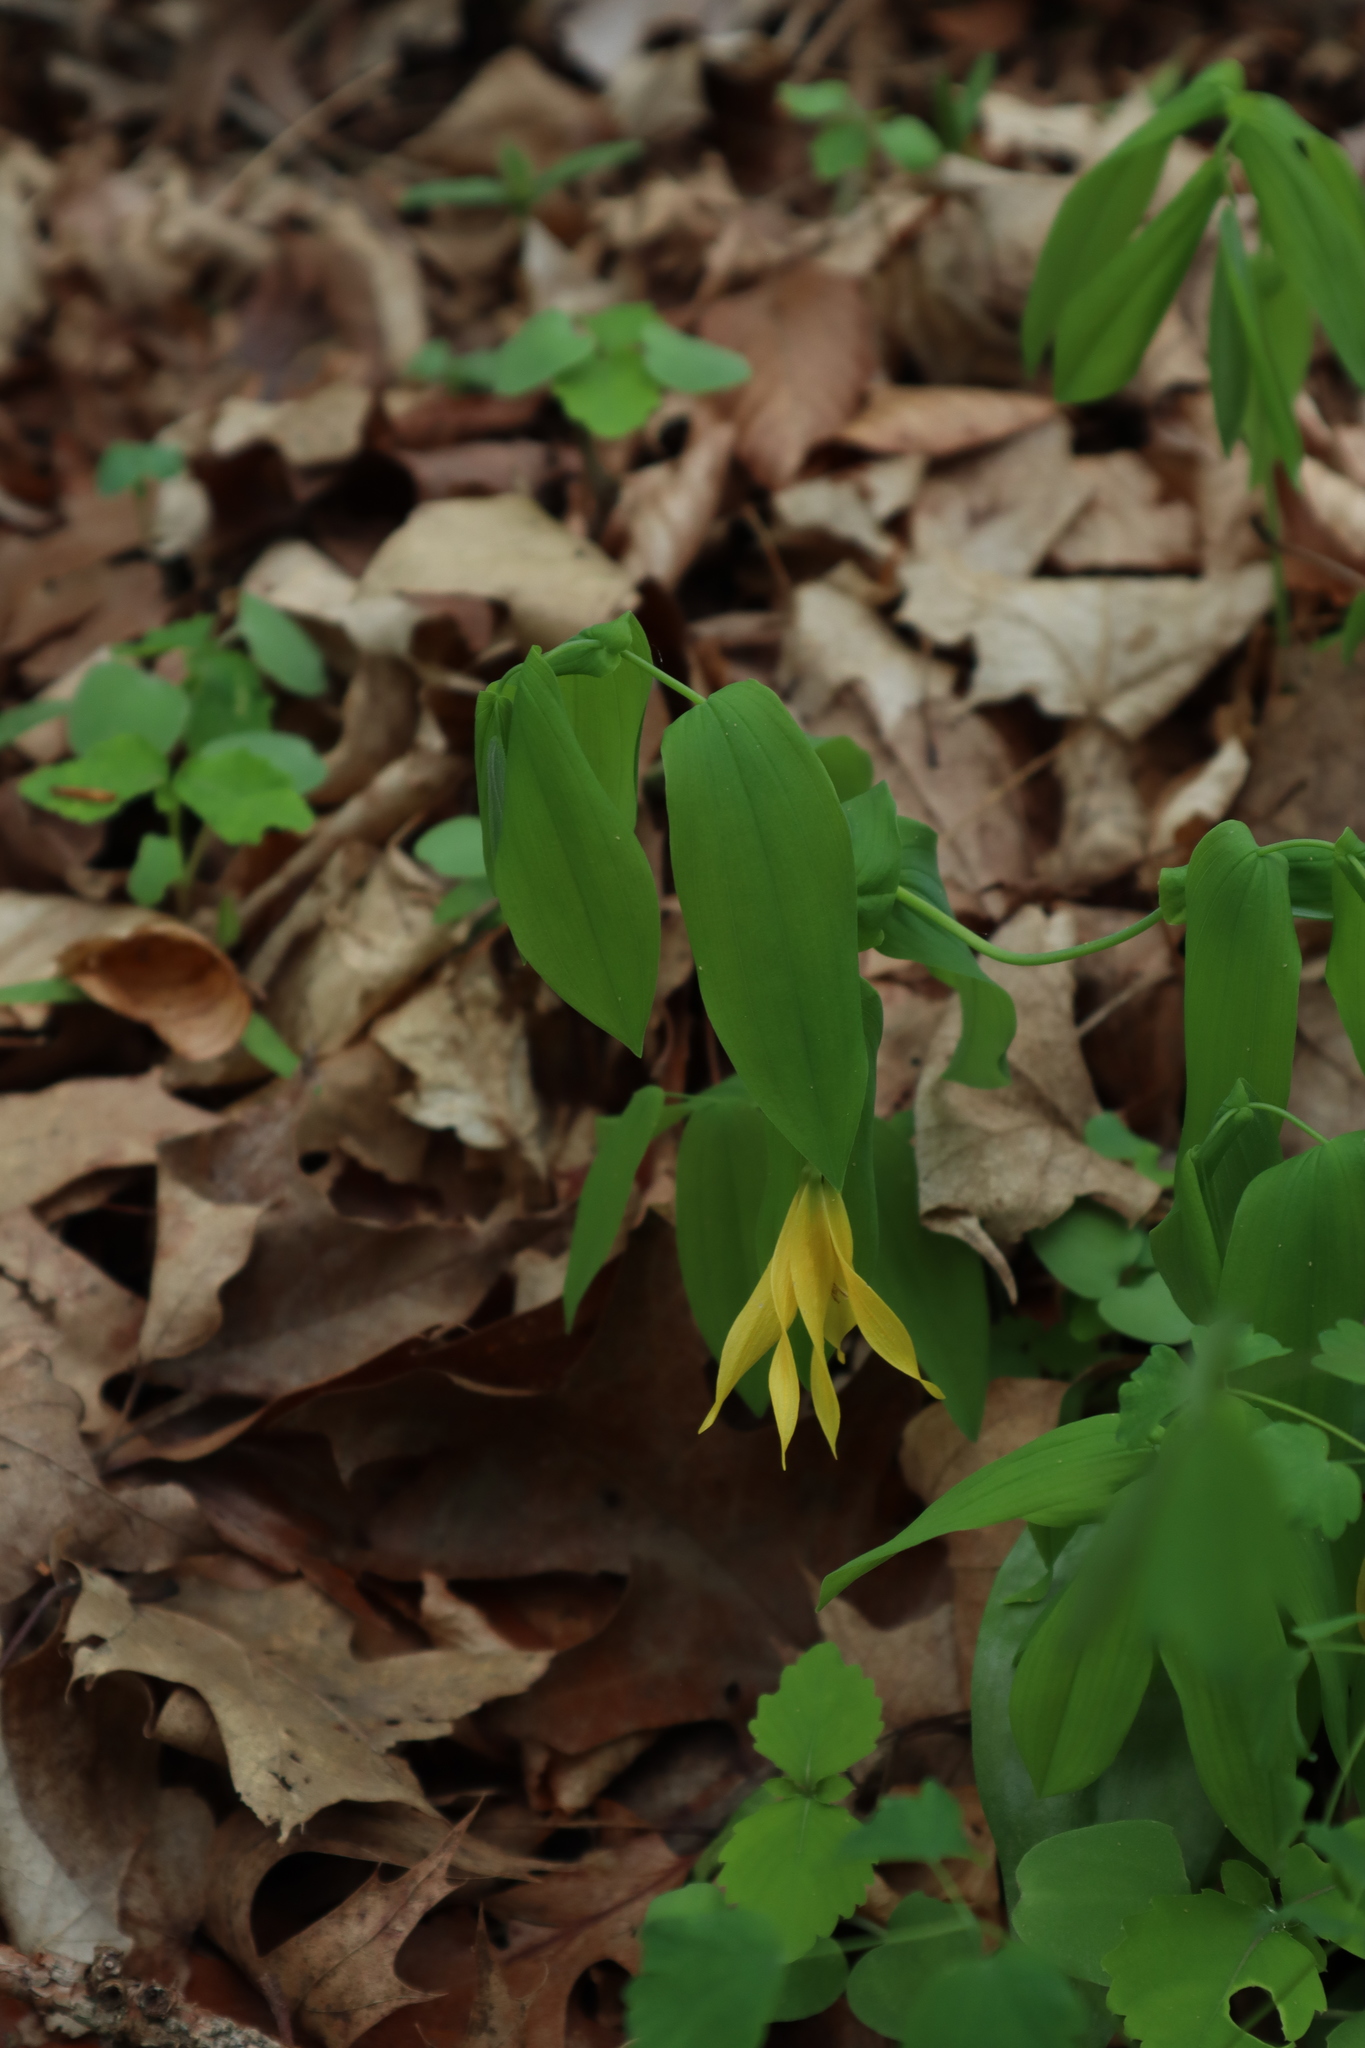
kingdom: Plantae
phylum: Tracheophyta
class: Liliopsida
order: Liliales
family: Colchicaceae
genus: Uvularia
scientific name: Uvularia grandiflora
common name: Bellwort
